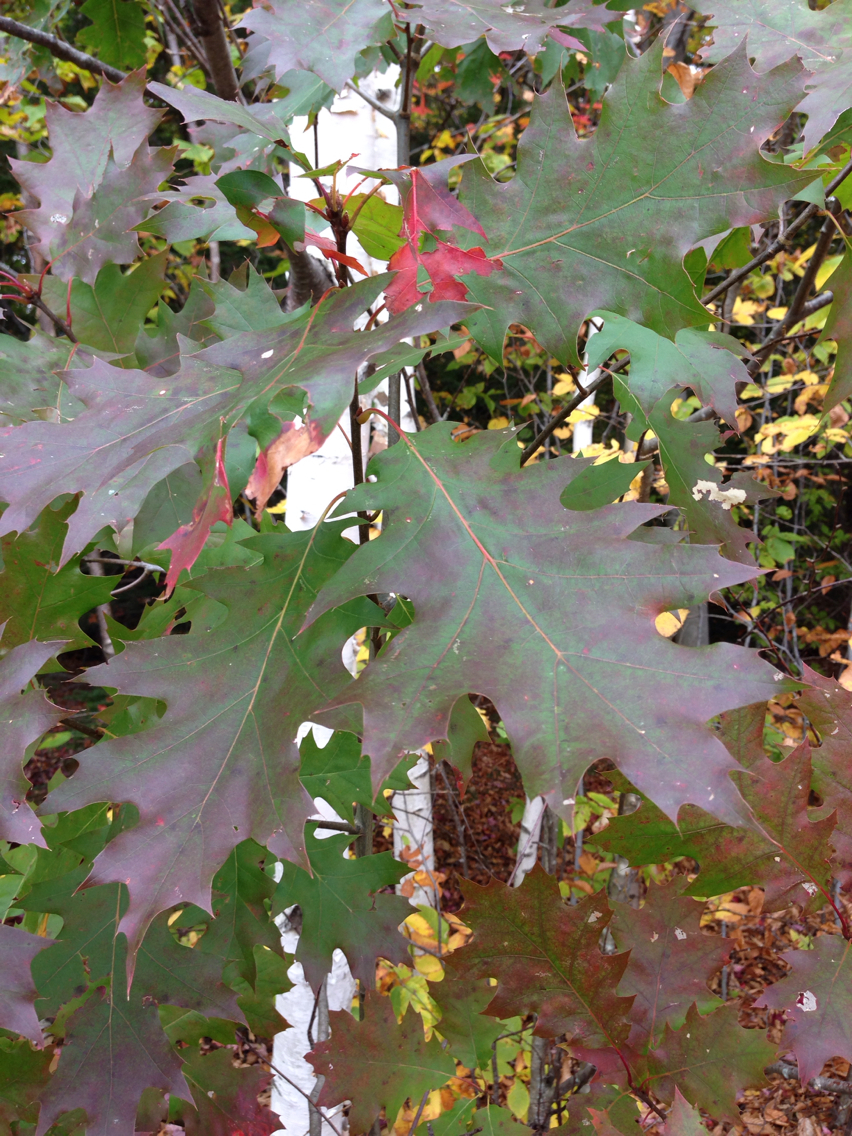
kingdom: Plantae
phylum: Tracheophyta
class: Magnoliopsida
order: Fagales
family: Fagaceae
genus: Quercus
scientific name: Quercus rubra
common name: Red oak
